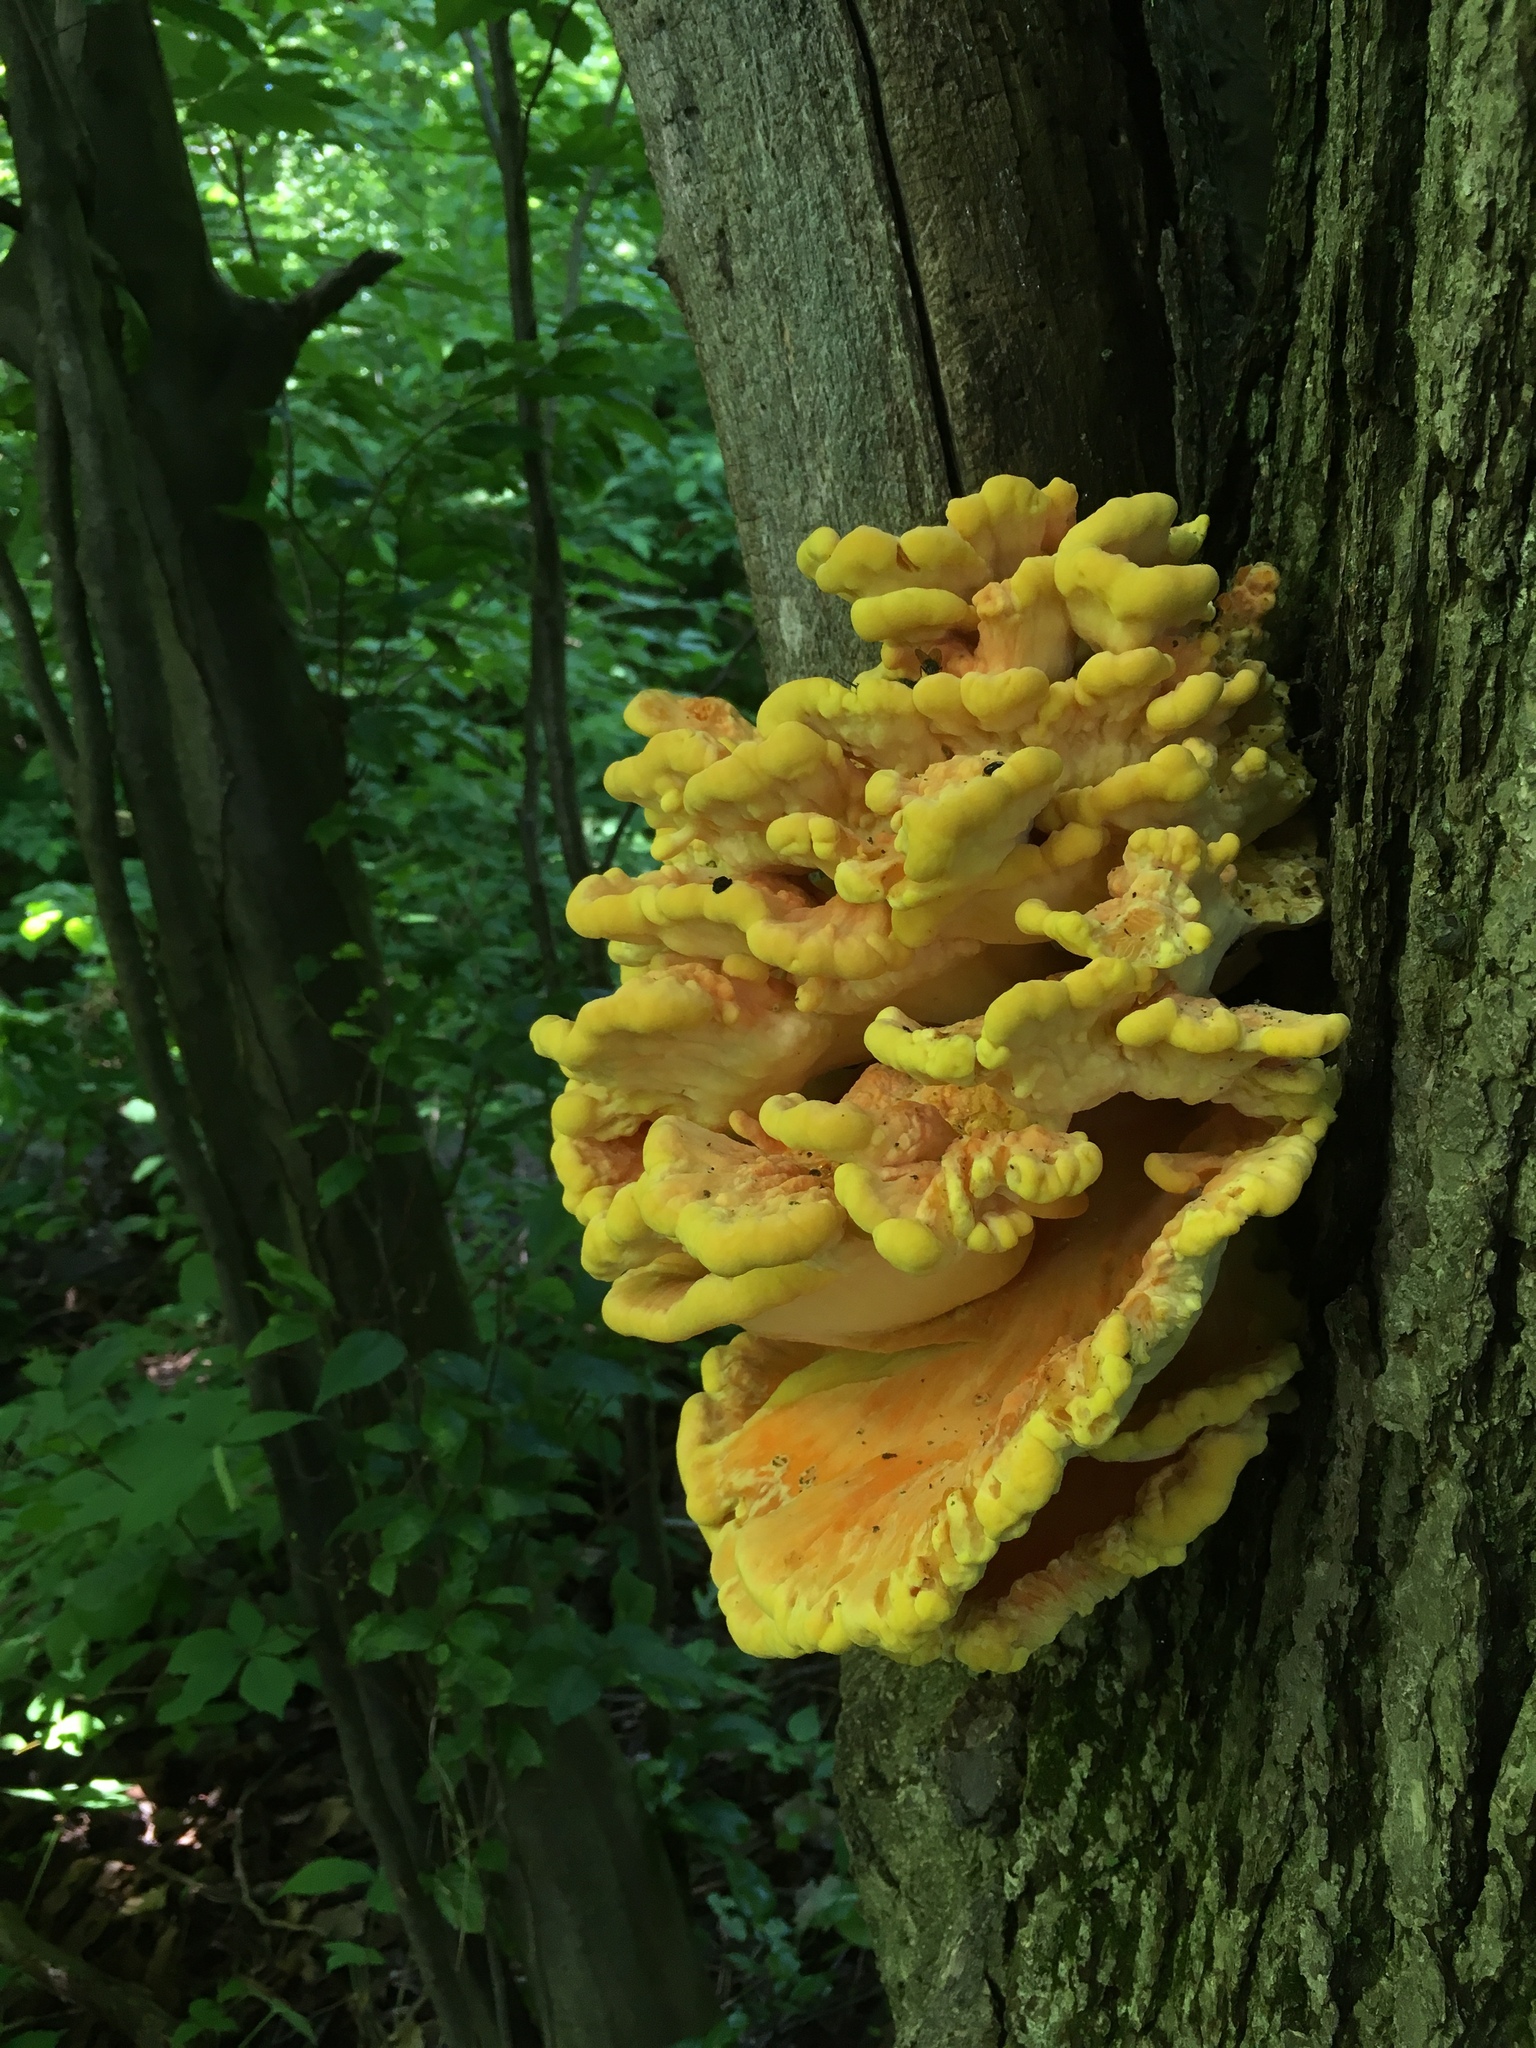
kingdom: Fungi
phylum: Basidiomycota
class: Agaricomycetes
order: Polyporales
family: Laetiporaceae
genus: Laetiporus
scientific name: Laetiporus sulphureus
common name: Chicken of the woods
